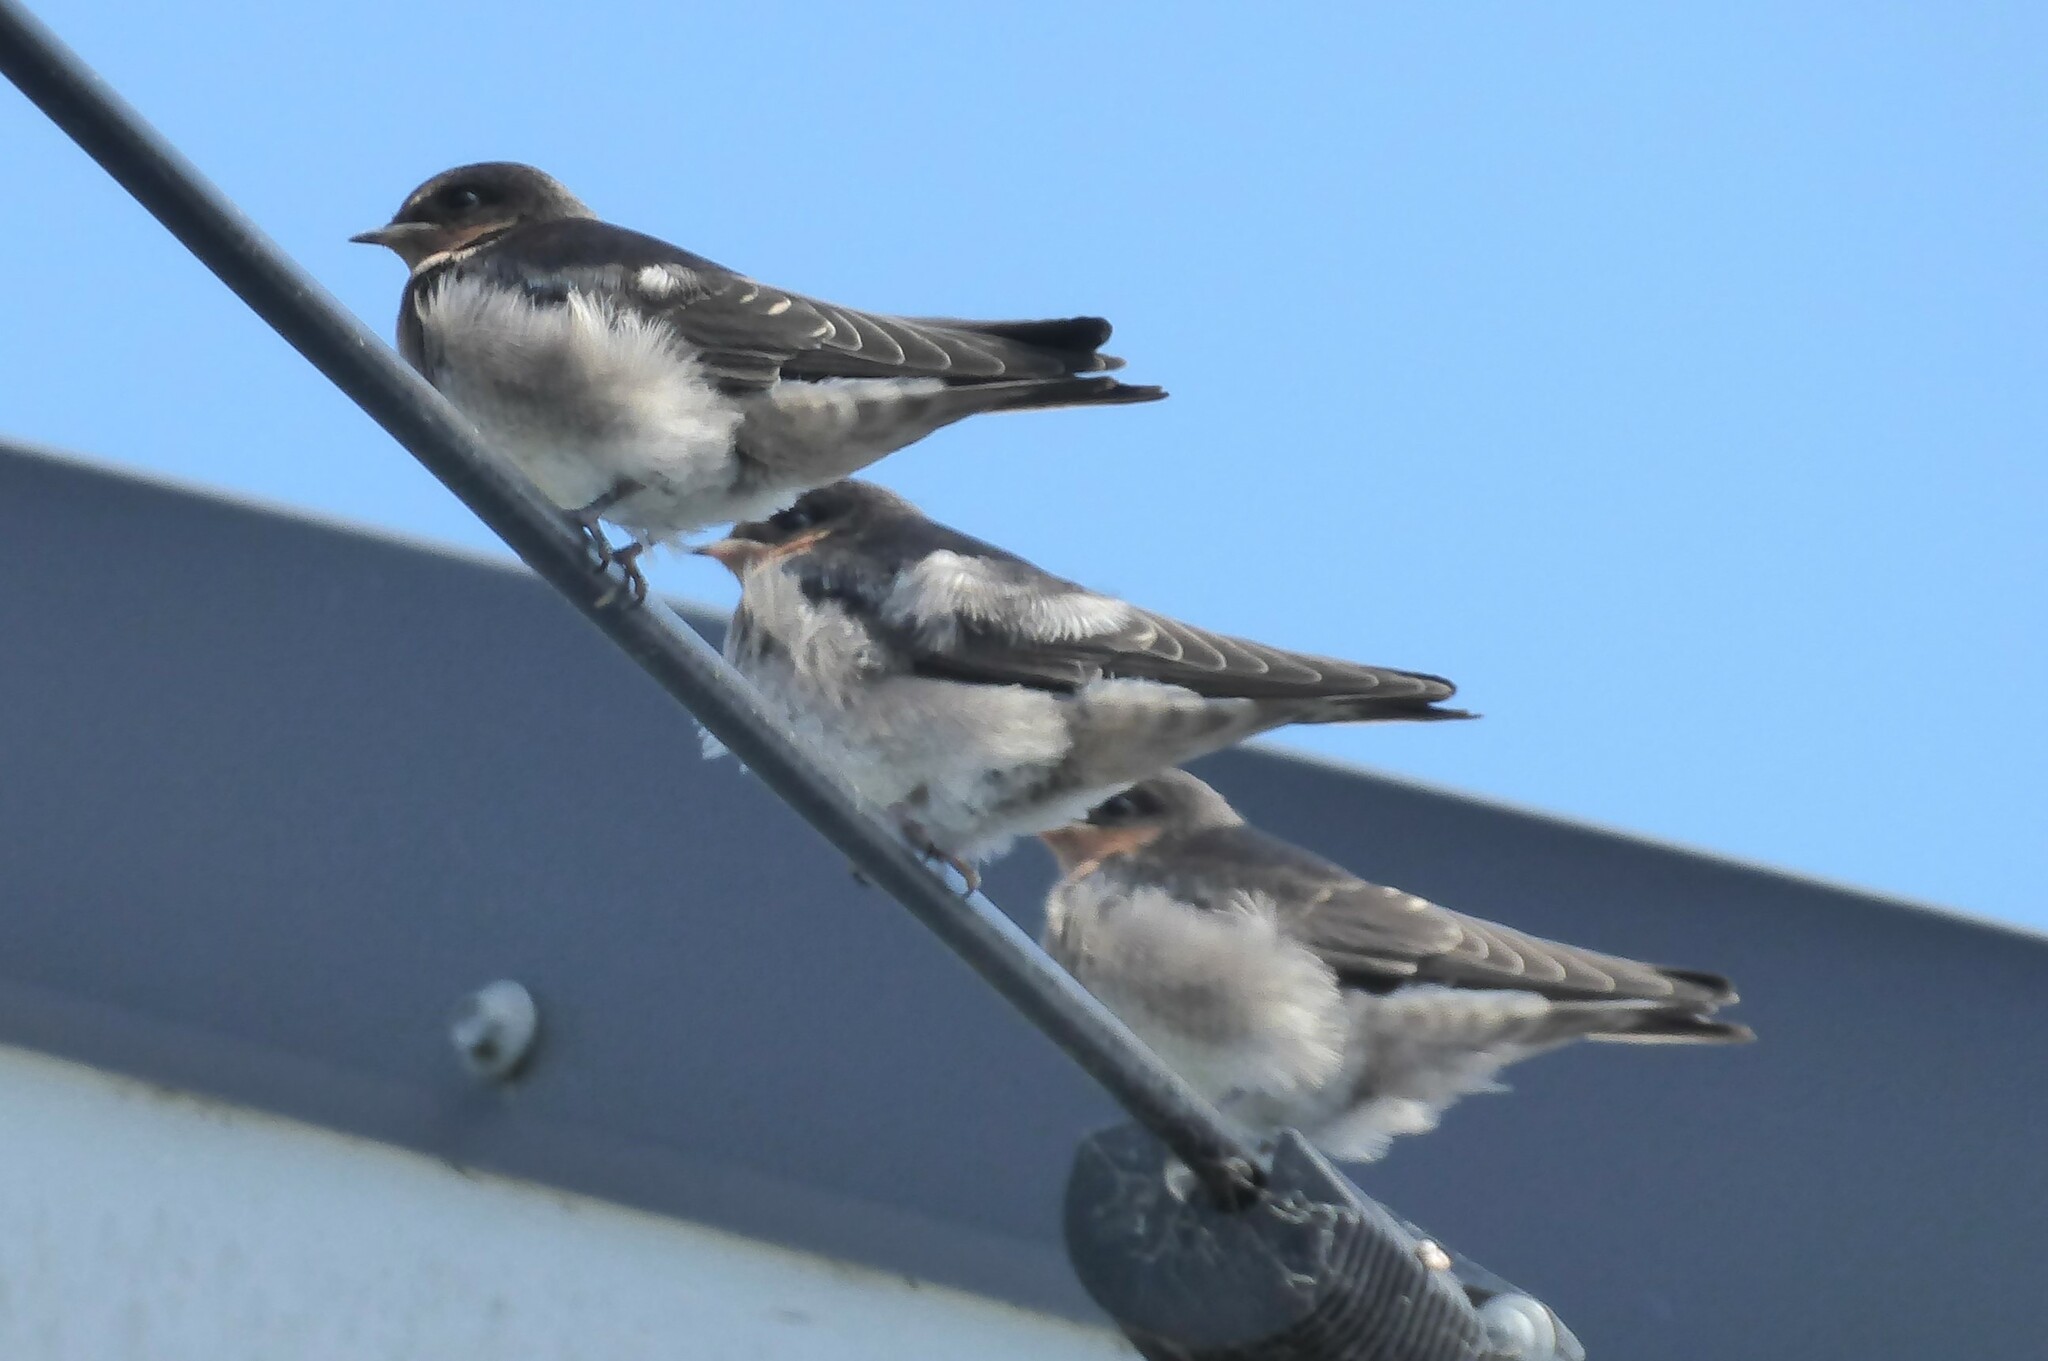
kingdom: Animalia
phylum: Chordata
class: Aves
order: Passeriformes
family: Hirundinidae
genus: Hirundo
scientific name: Hirundo neoxena
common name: Welcome swallow
